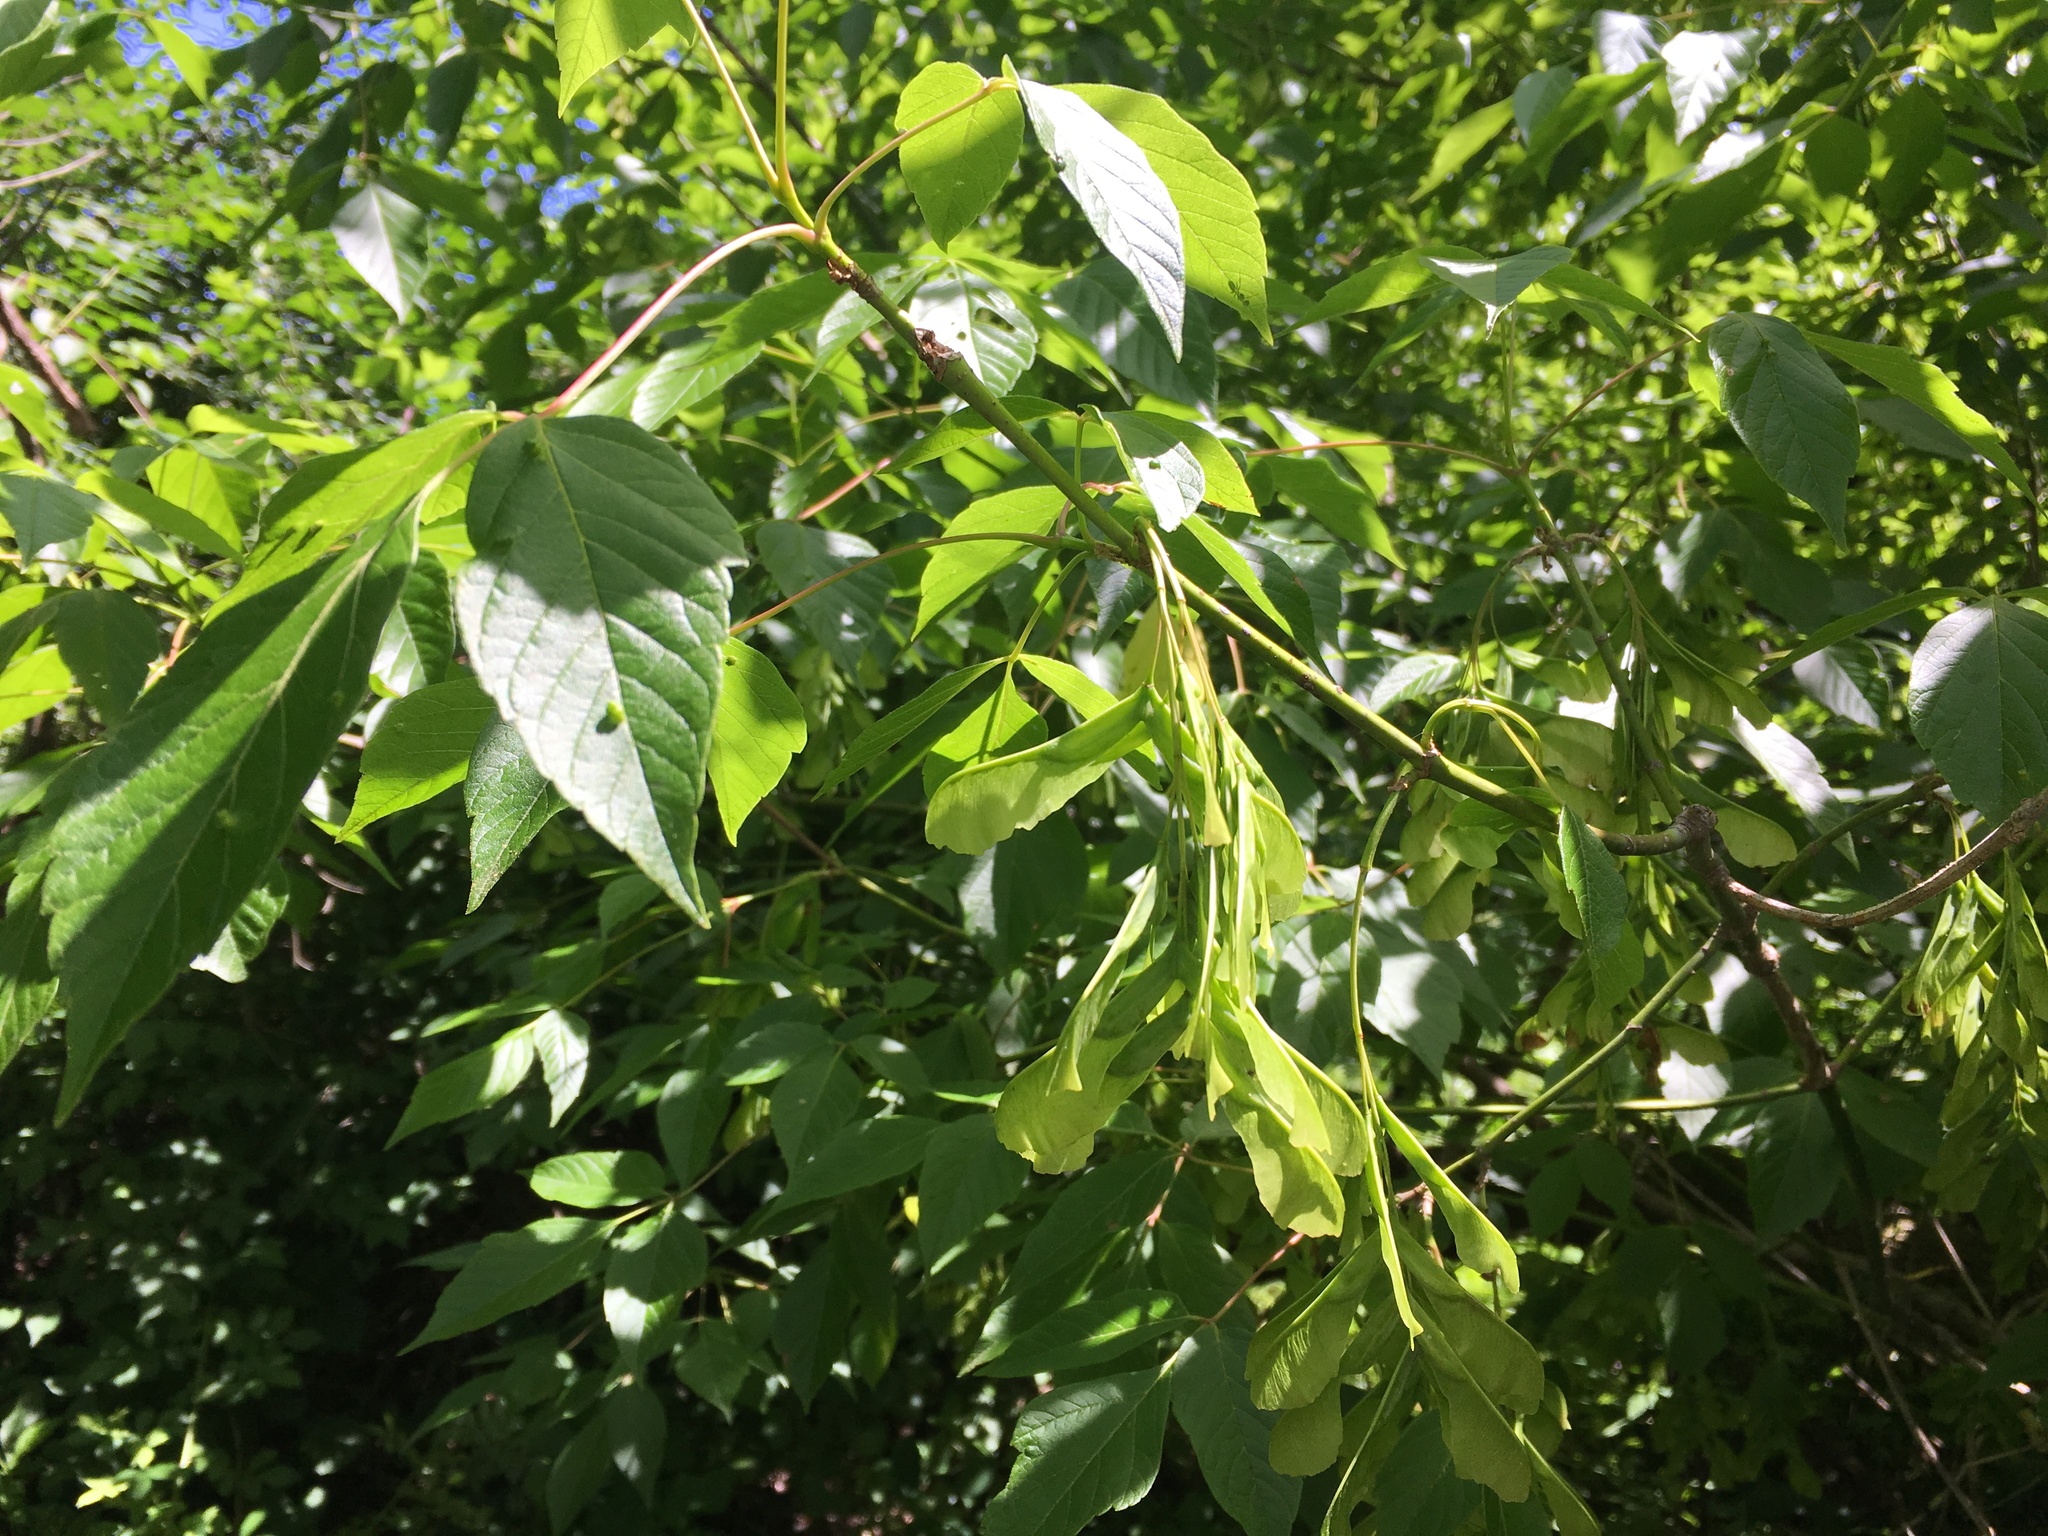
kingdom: Plantae
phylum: Tracheophyta
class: Magnoliopsida
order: Sapindales
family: Sapindaceae
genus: Acer
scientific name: Acer negundo
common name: Ashleaf maple
